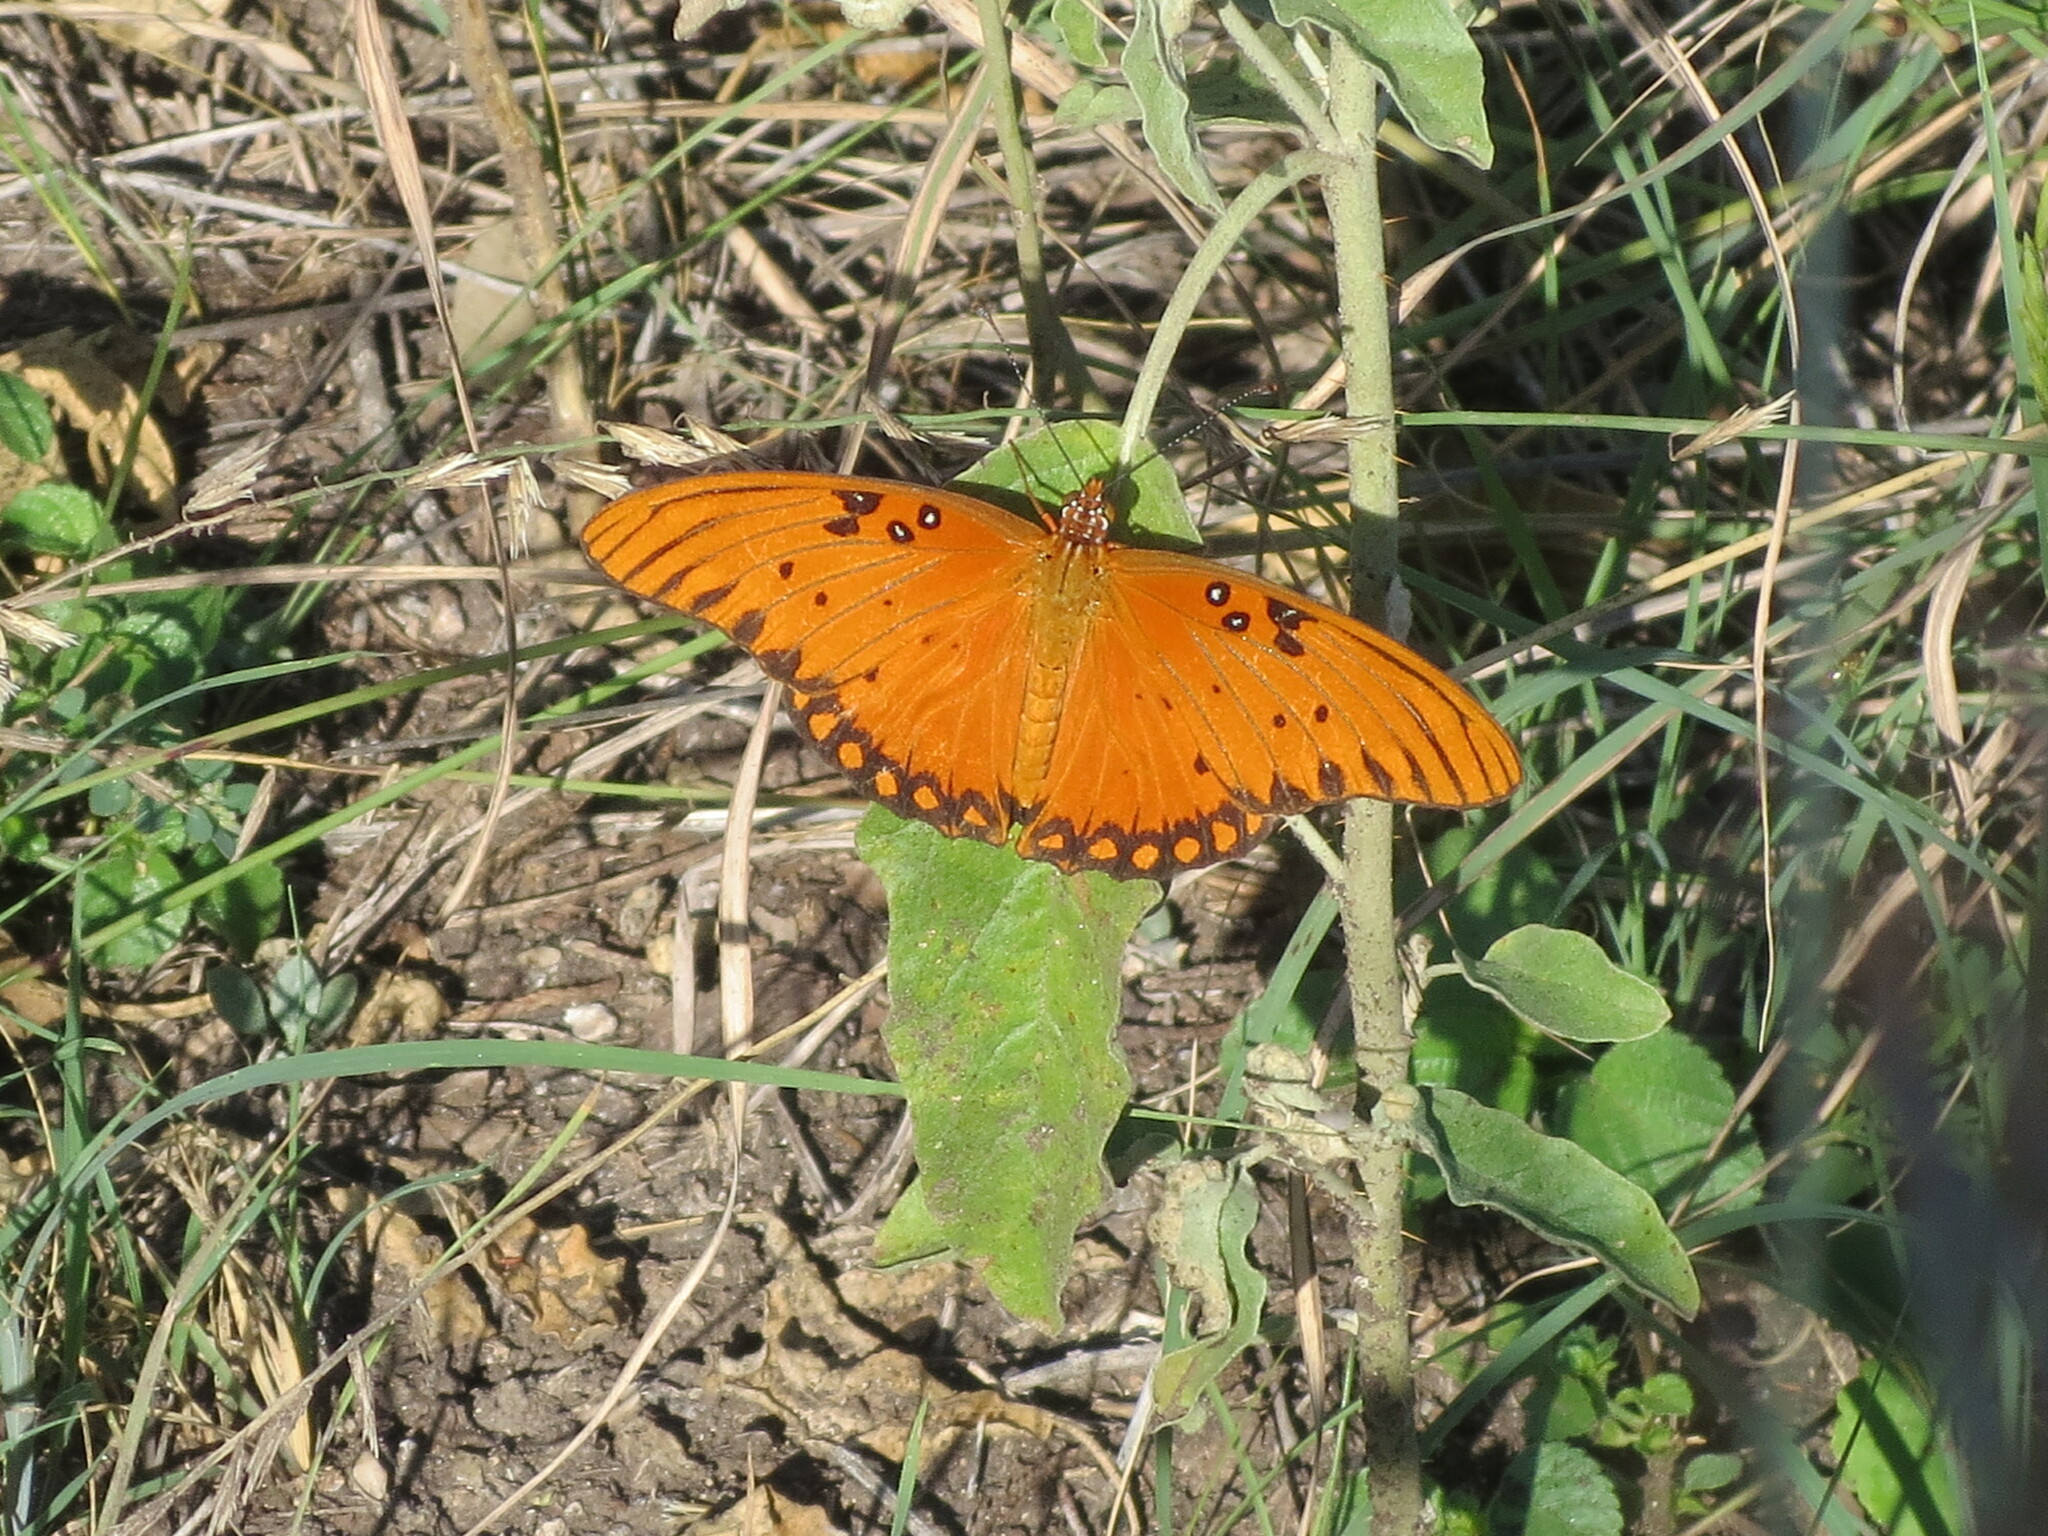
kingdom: Animalia
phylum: Arthropoda
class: Insecta
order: Lepidoptera
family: Nymphalidae
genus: Dione
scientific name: Dione vanillae
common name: Gulf fritillary
